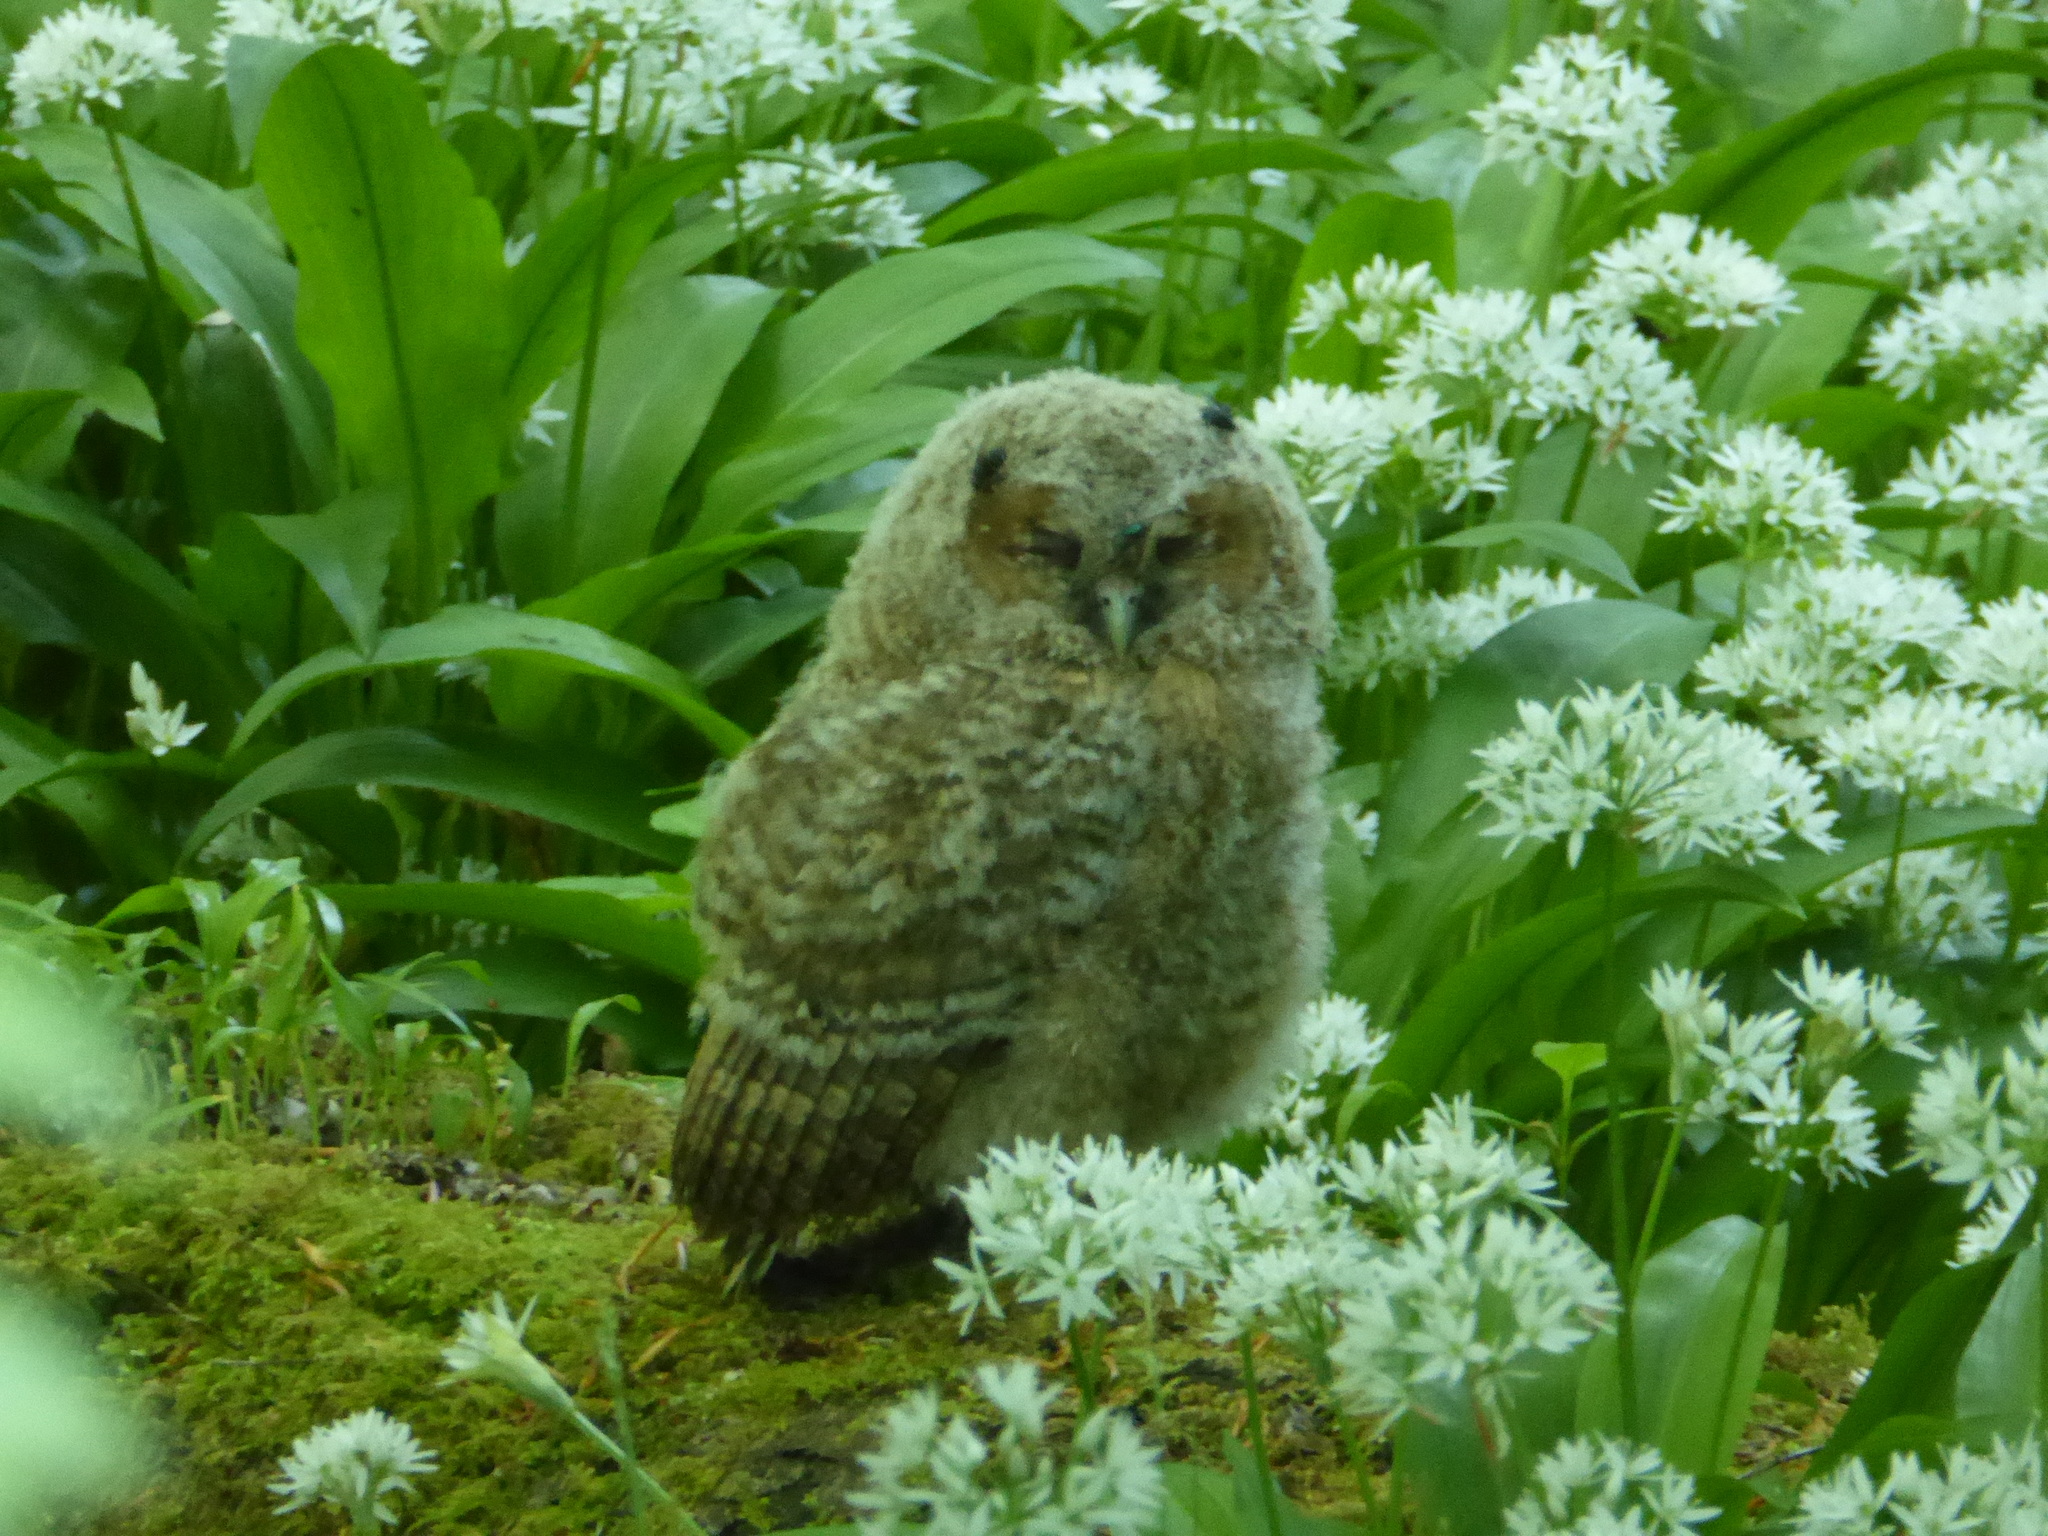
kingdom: Animalia
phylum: Chordata
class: Aves
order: Strigiformes
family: Strigidae
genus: Strix
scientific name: Strix aluco
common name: Tawny owl
